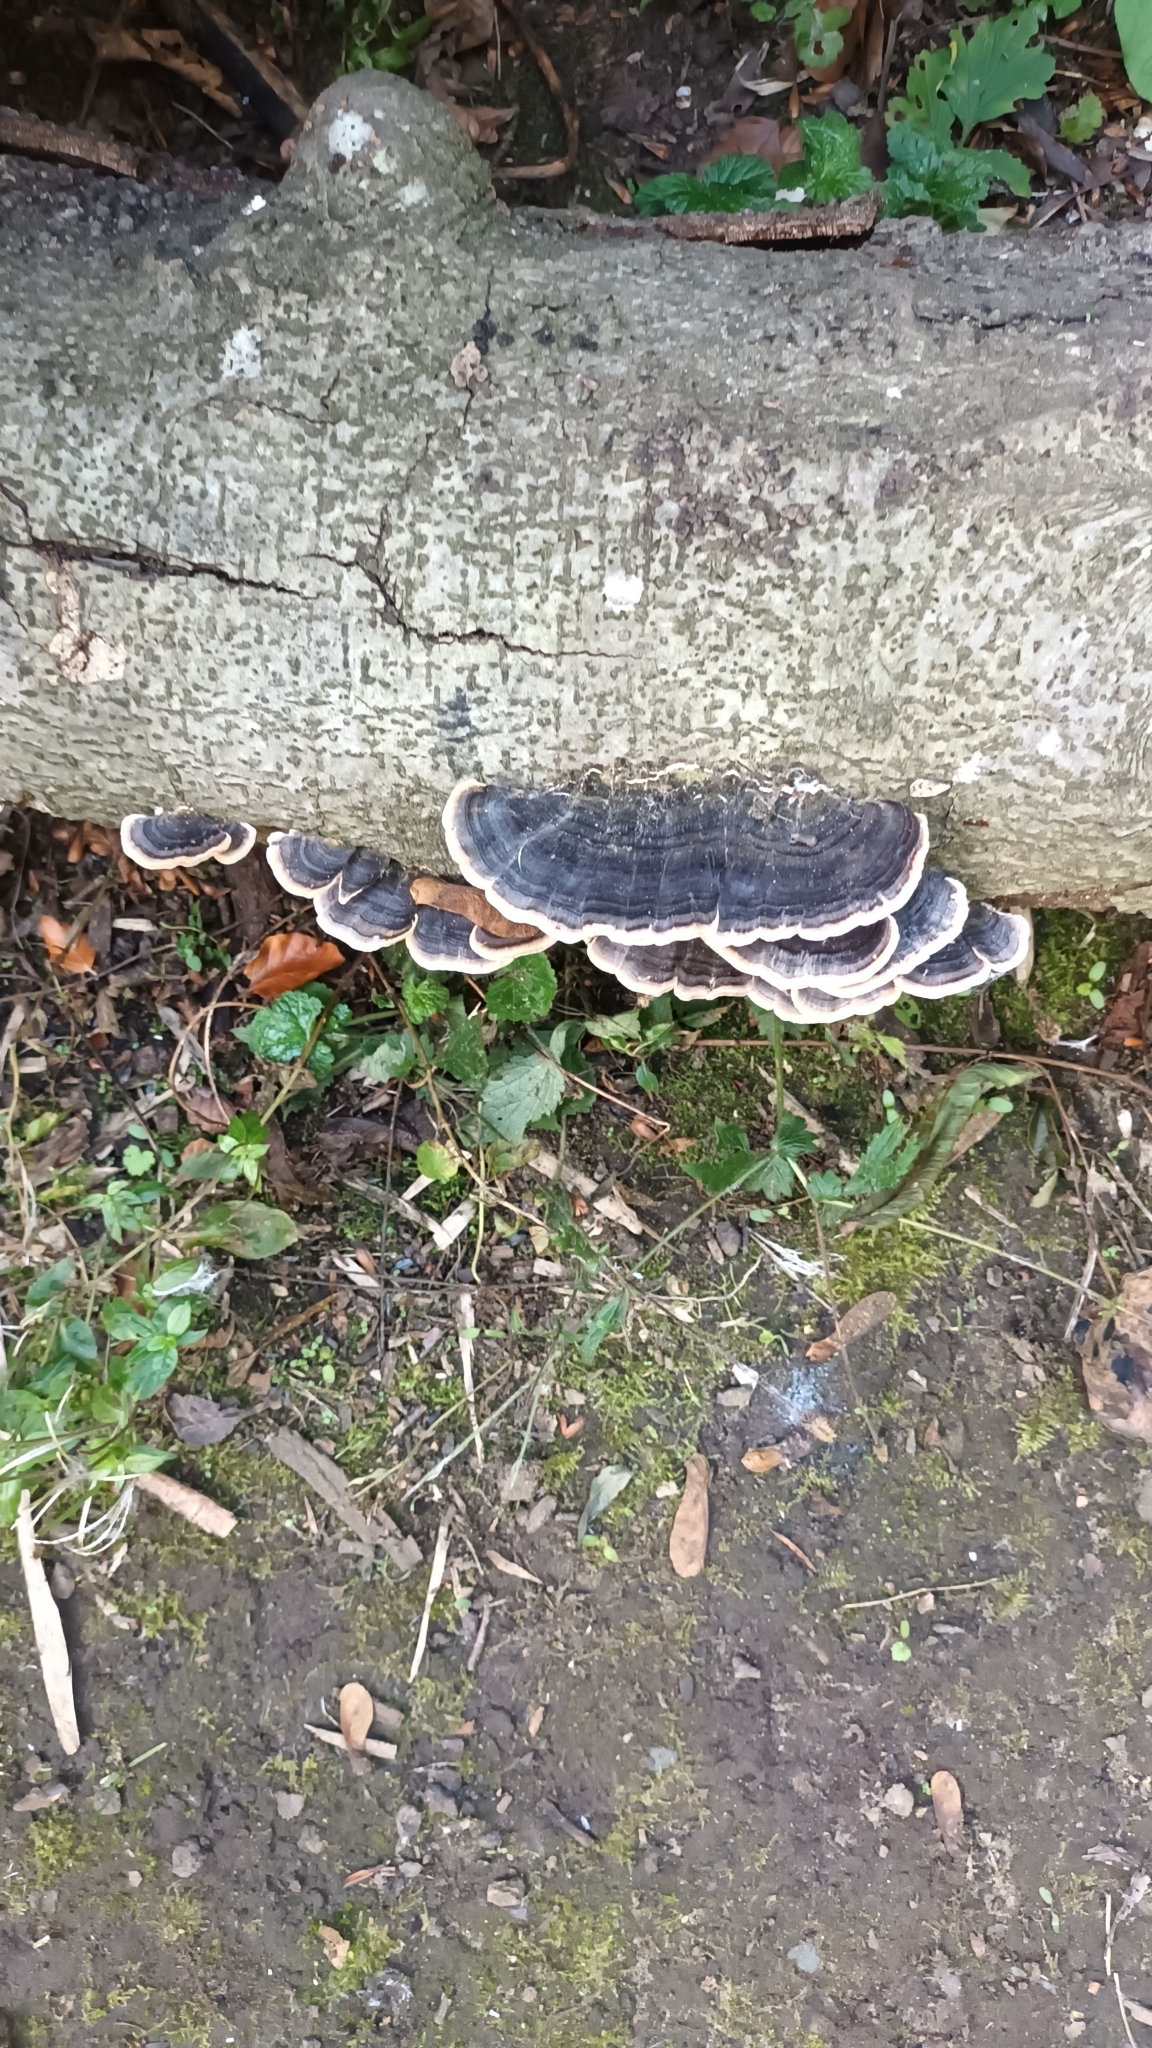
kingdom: Fungi
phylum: Basidiomycota
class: Agaricomycetes
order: Polyporales
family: Polyporaceae
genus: Trametes
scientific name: Trametes versicolor
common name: Turkeytail
